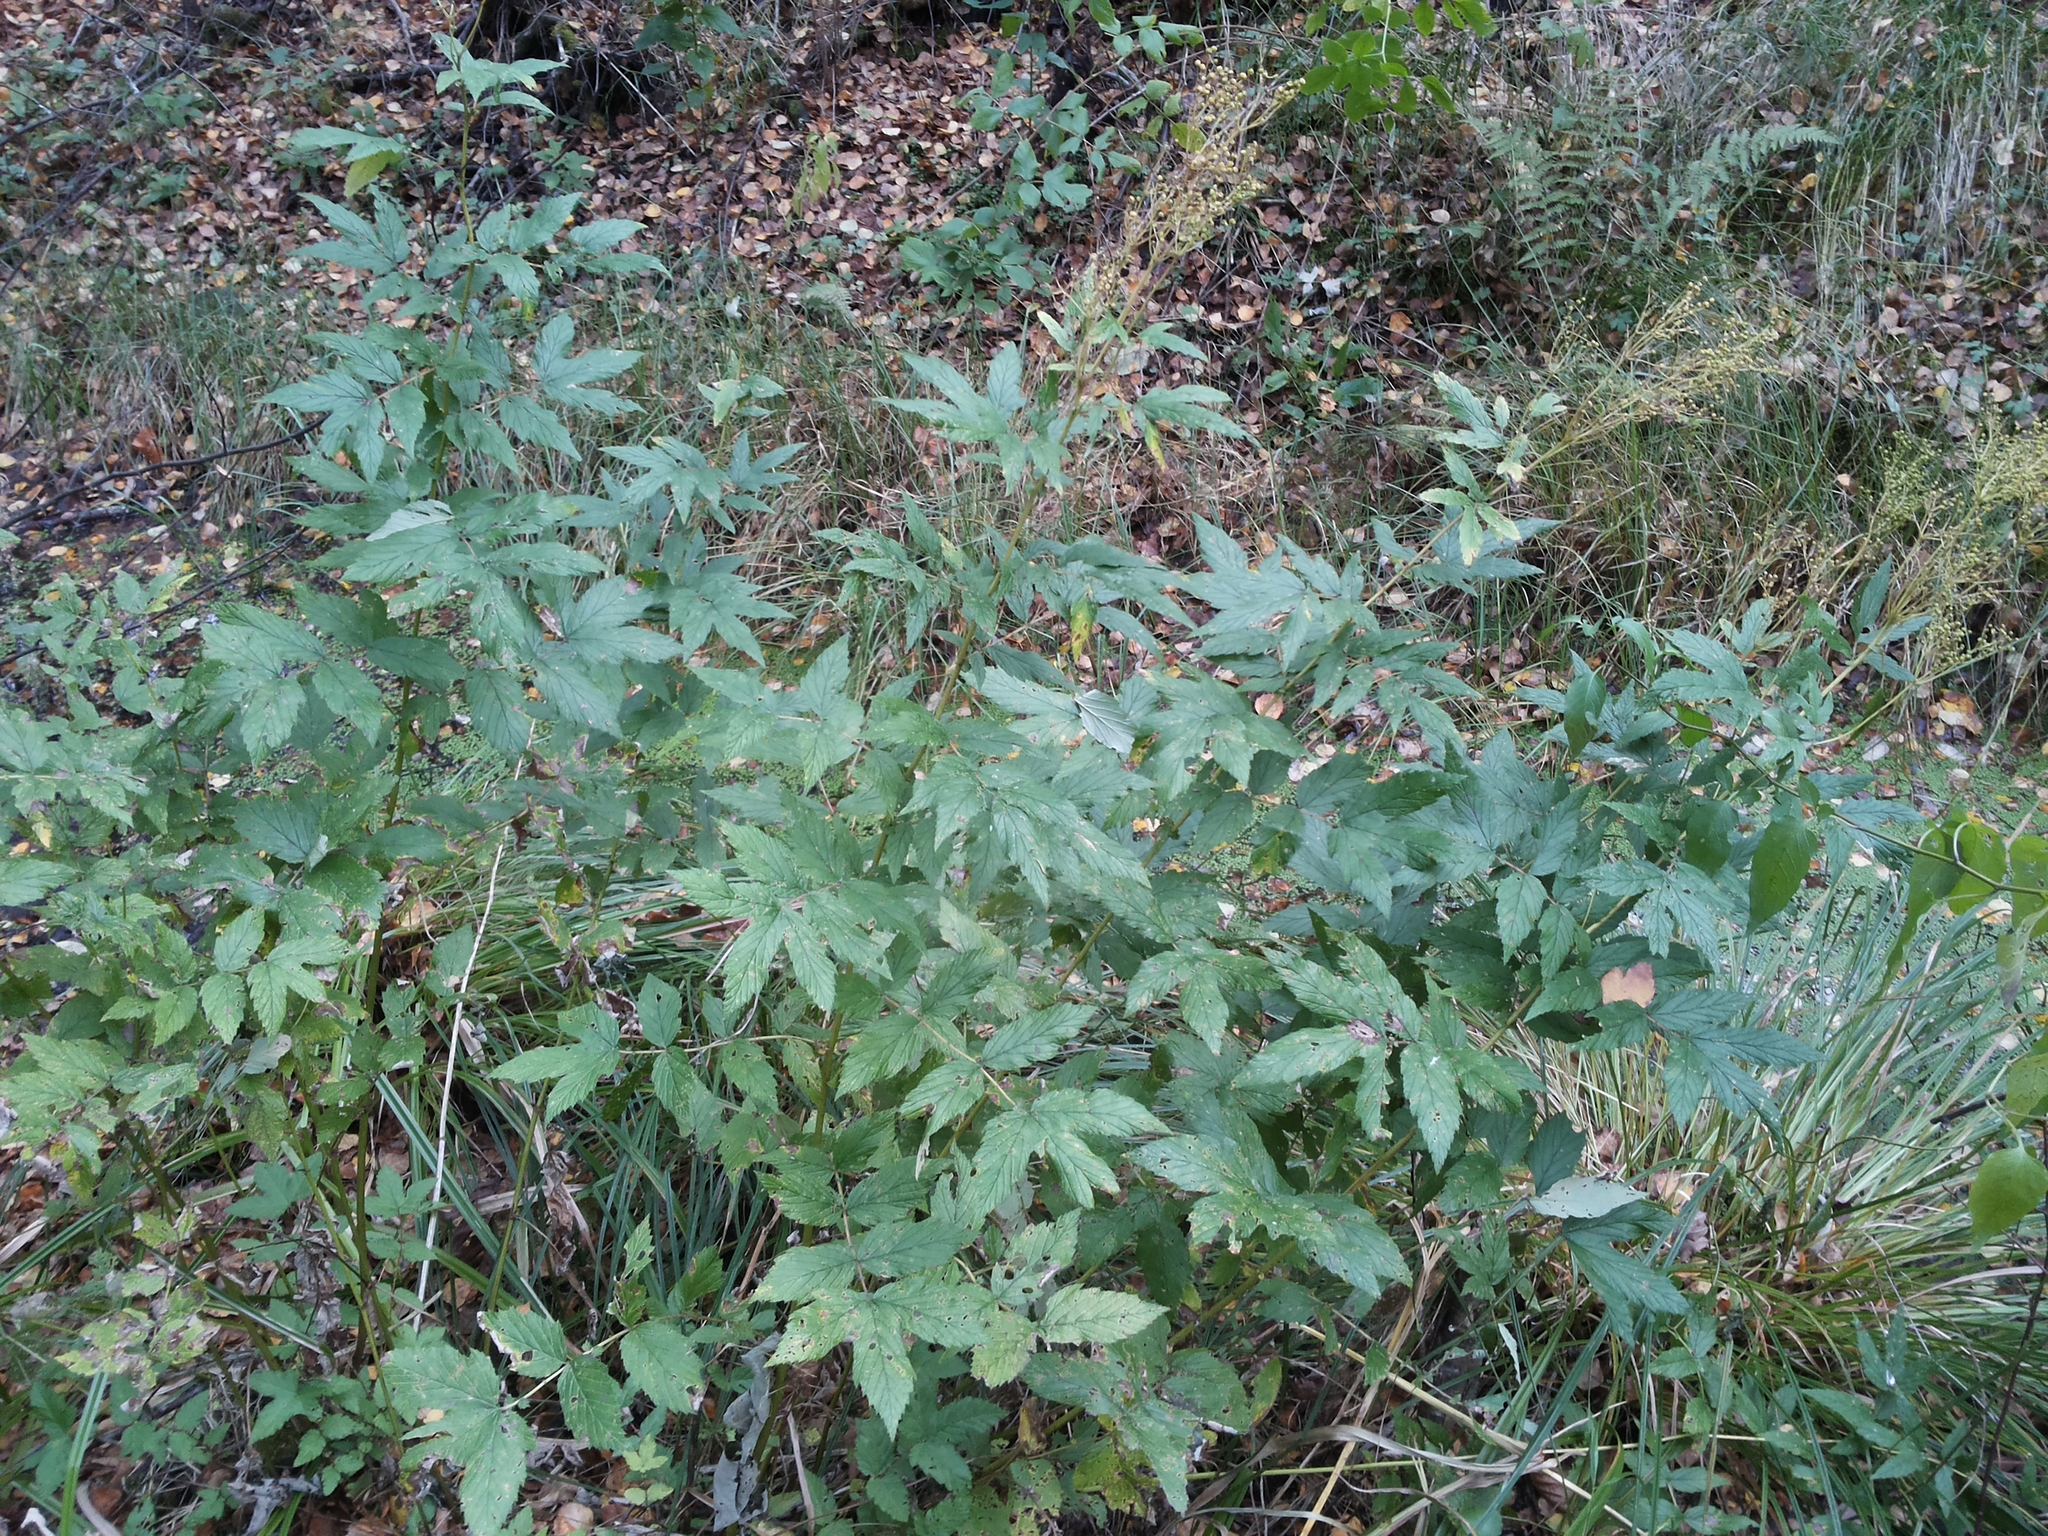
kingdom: Plantae
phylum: Tracheophyta
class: Magnoliopsida
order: Rosales
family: Rosaceae
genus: Filipendula
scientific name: Filipendula ulmaria
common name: Meadowsweet
